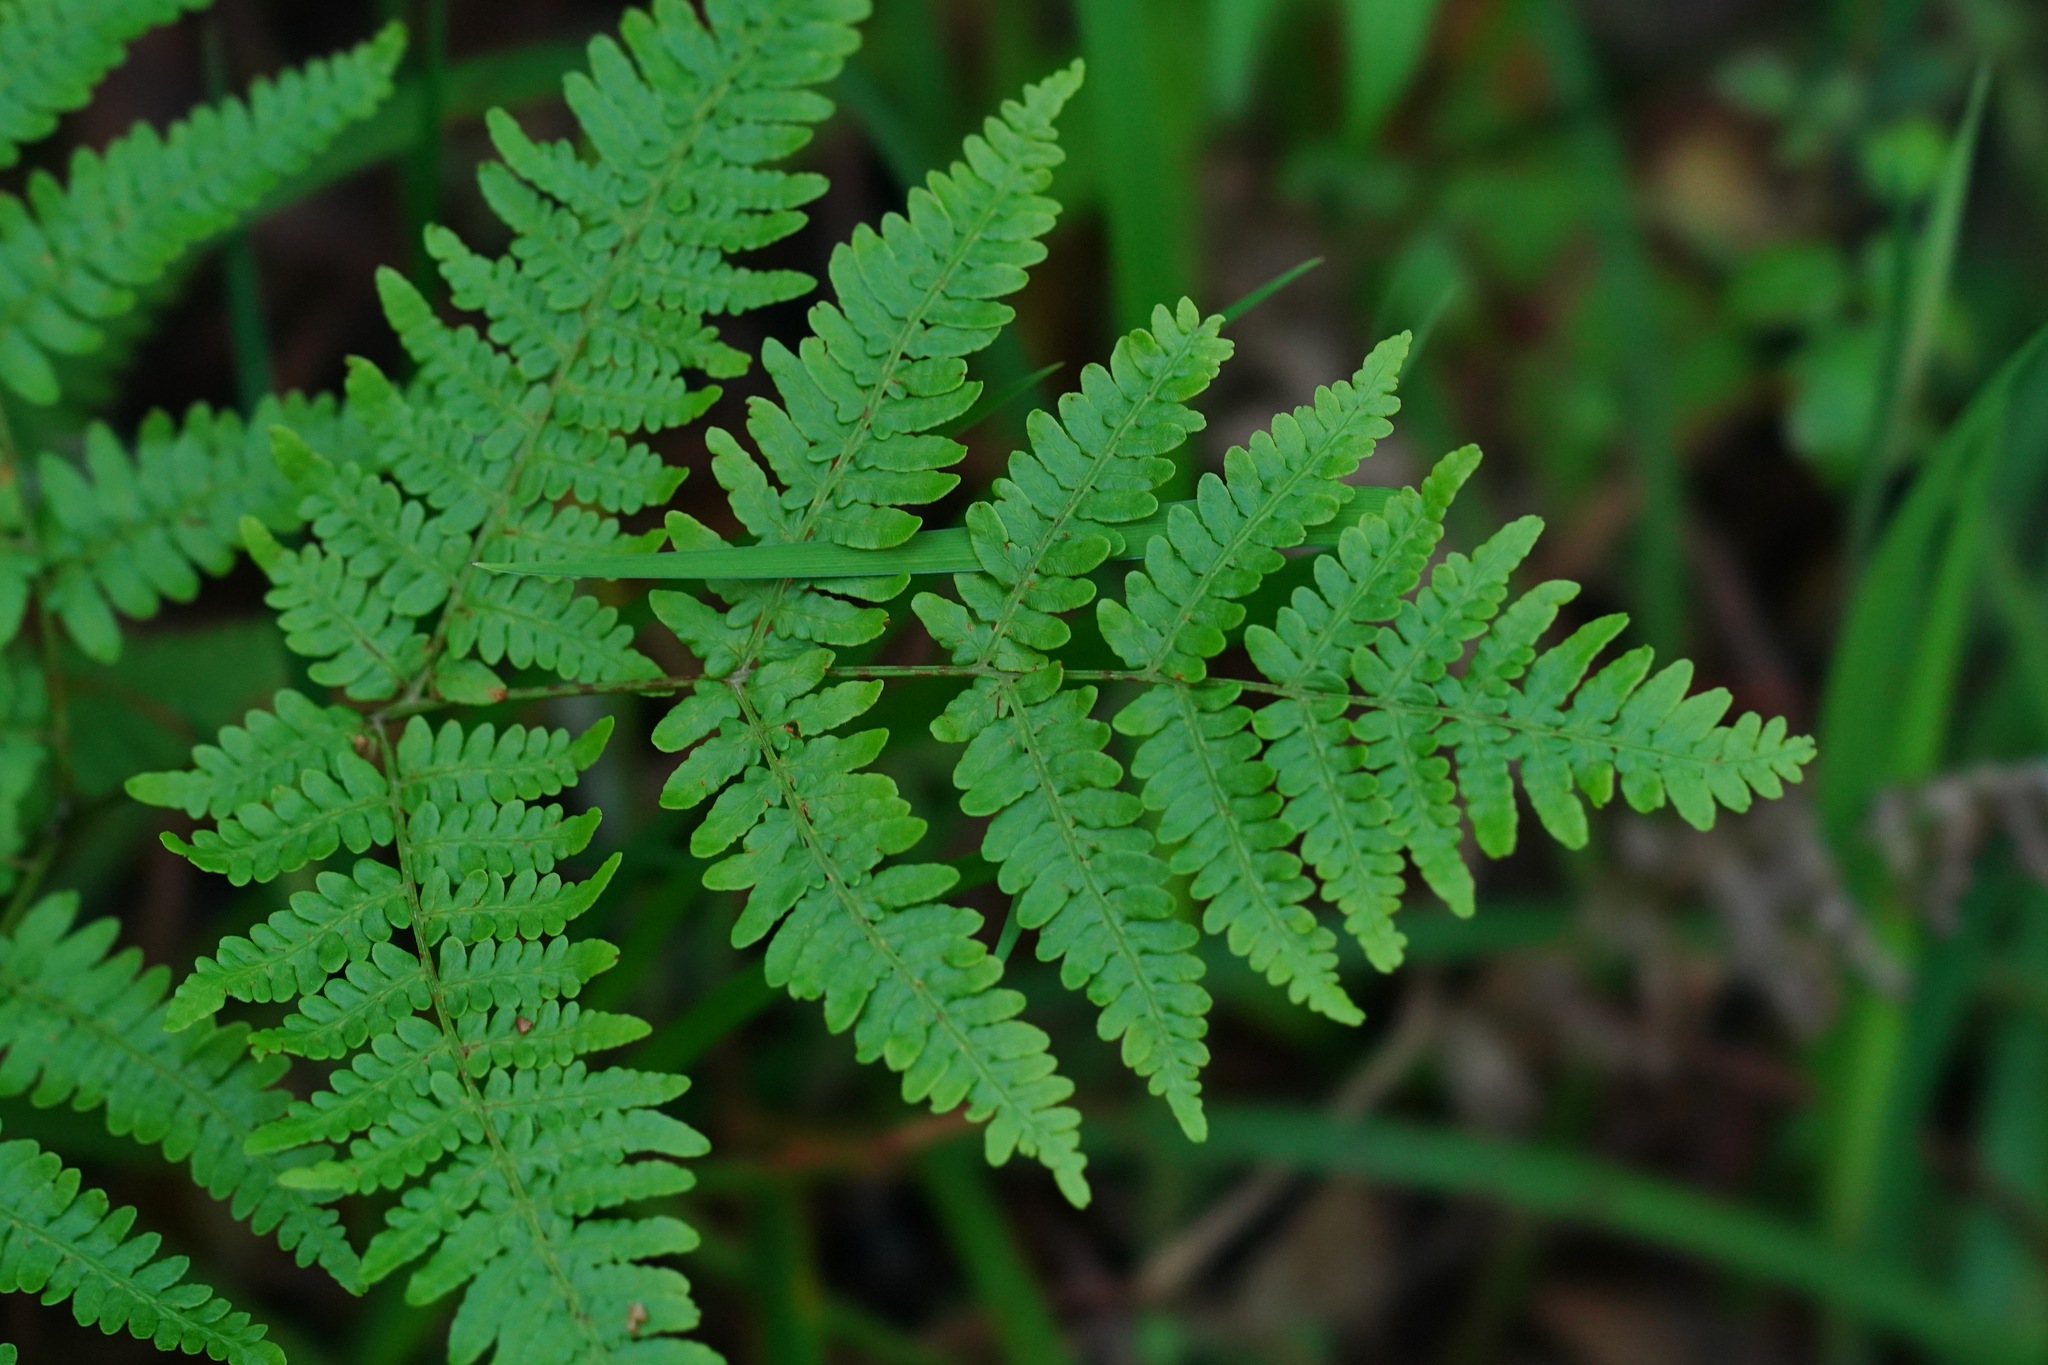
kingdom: Plantae
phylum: Tracheophyta
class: Polypodiopsida
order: Polypodiales
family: Dennstaedtiaceae
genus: Pteridium
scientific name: Pteridium aquilinum
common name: Bracken
